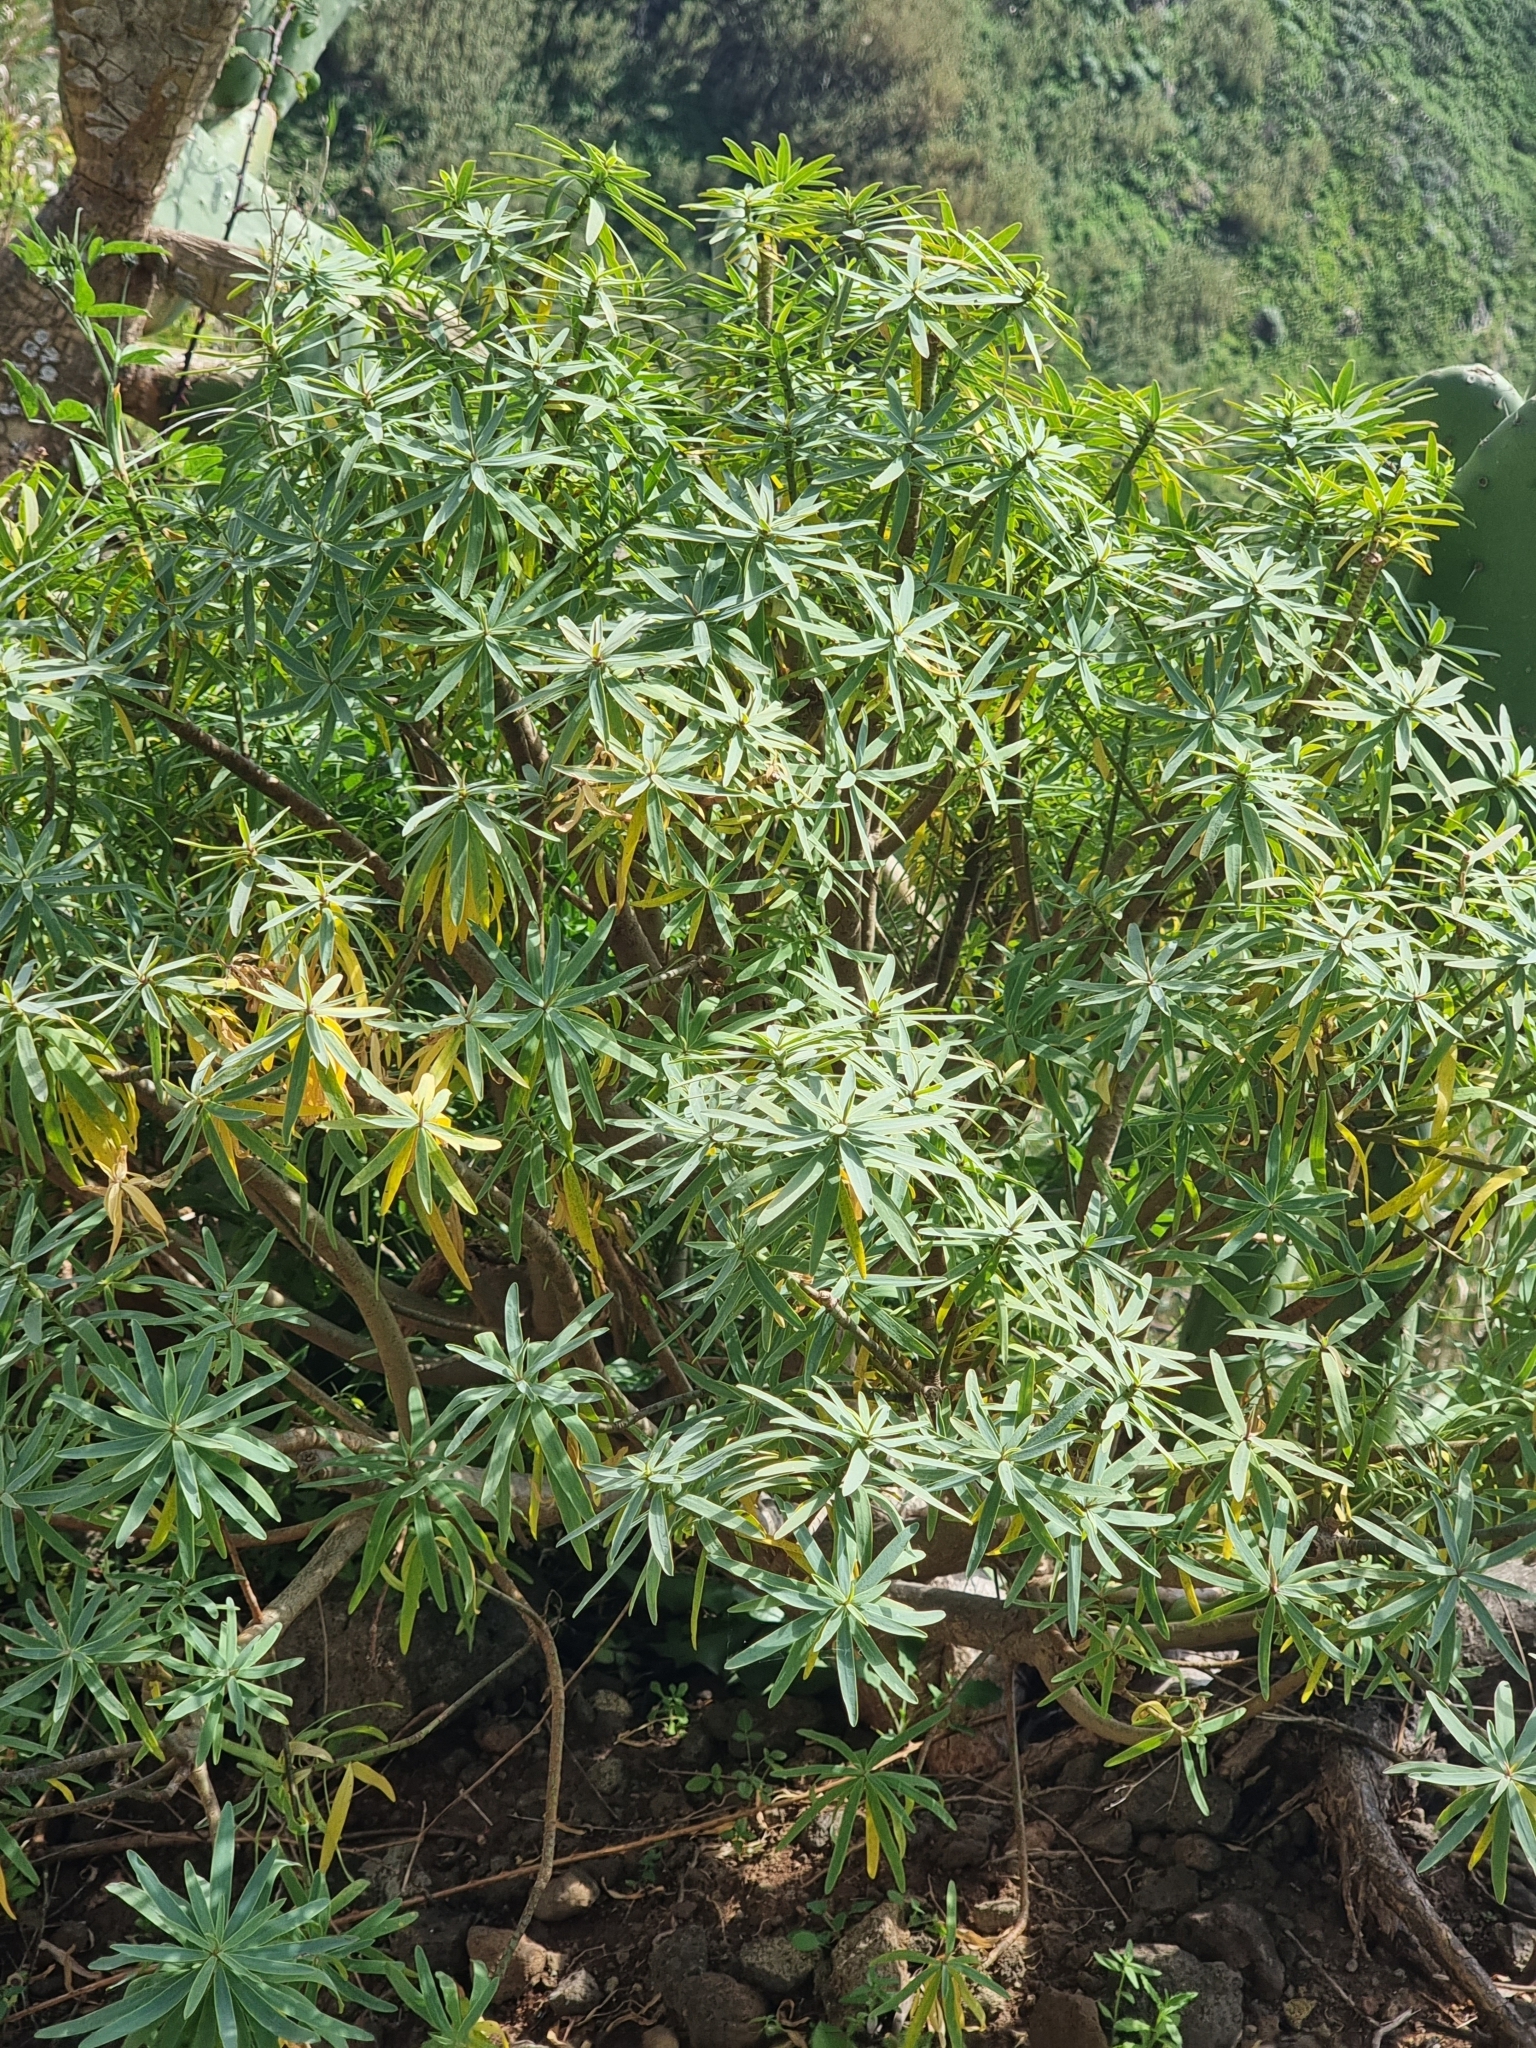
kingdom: Plantae
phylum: Tracheophyta
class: Magnoliopsida
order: Malpighiales
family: Euphorbiaceae
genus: Euphorbia
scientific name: Euphorbia piscatoria
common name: Fish-stunning spurge
